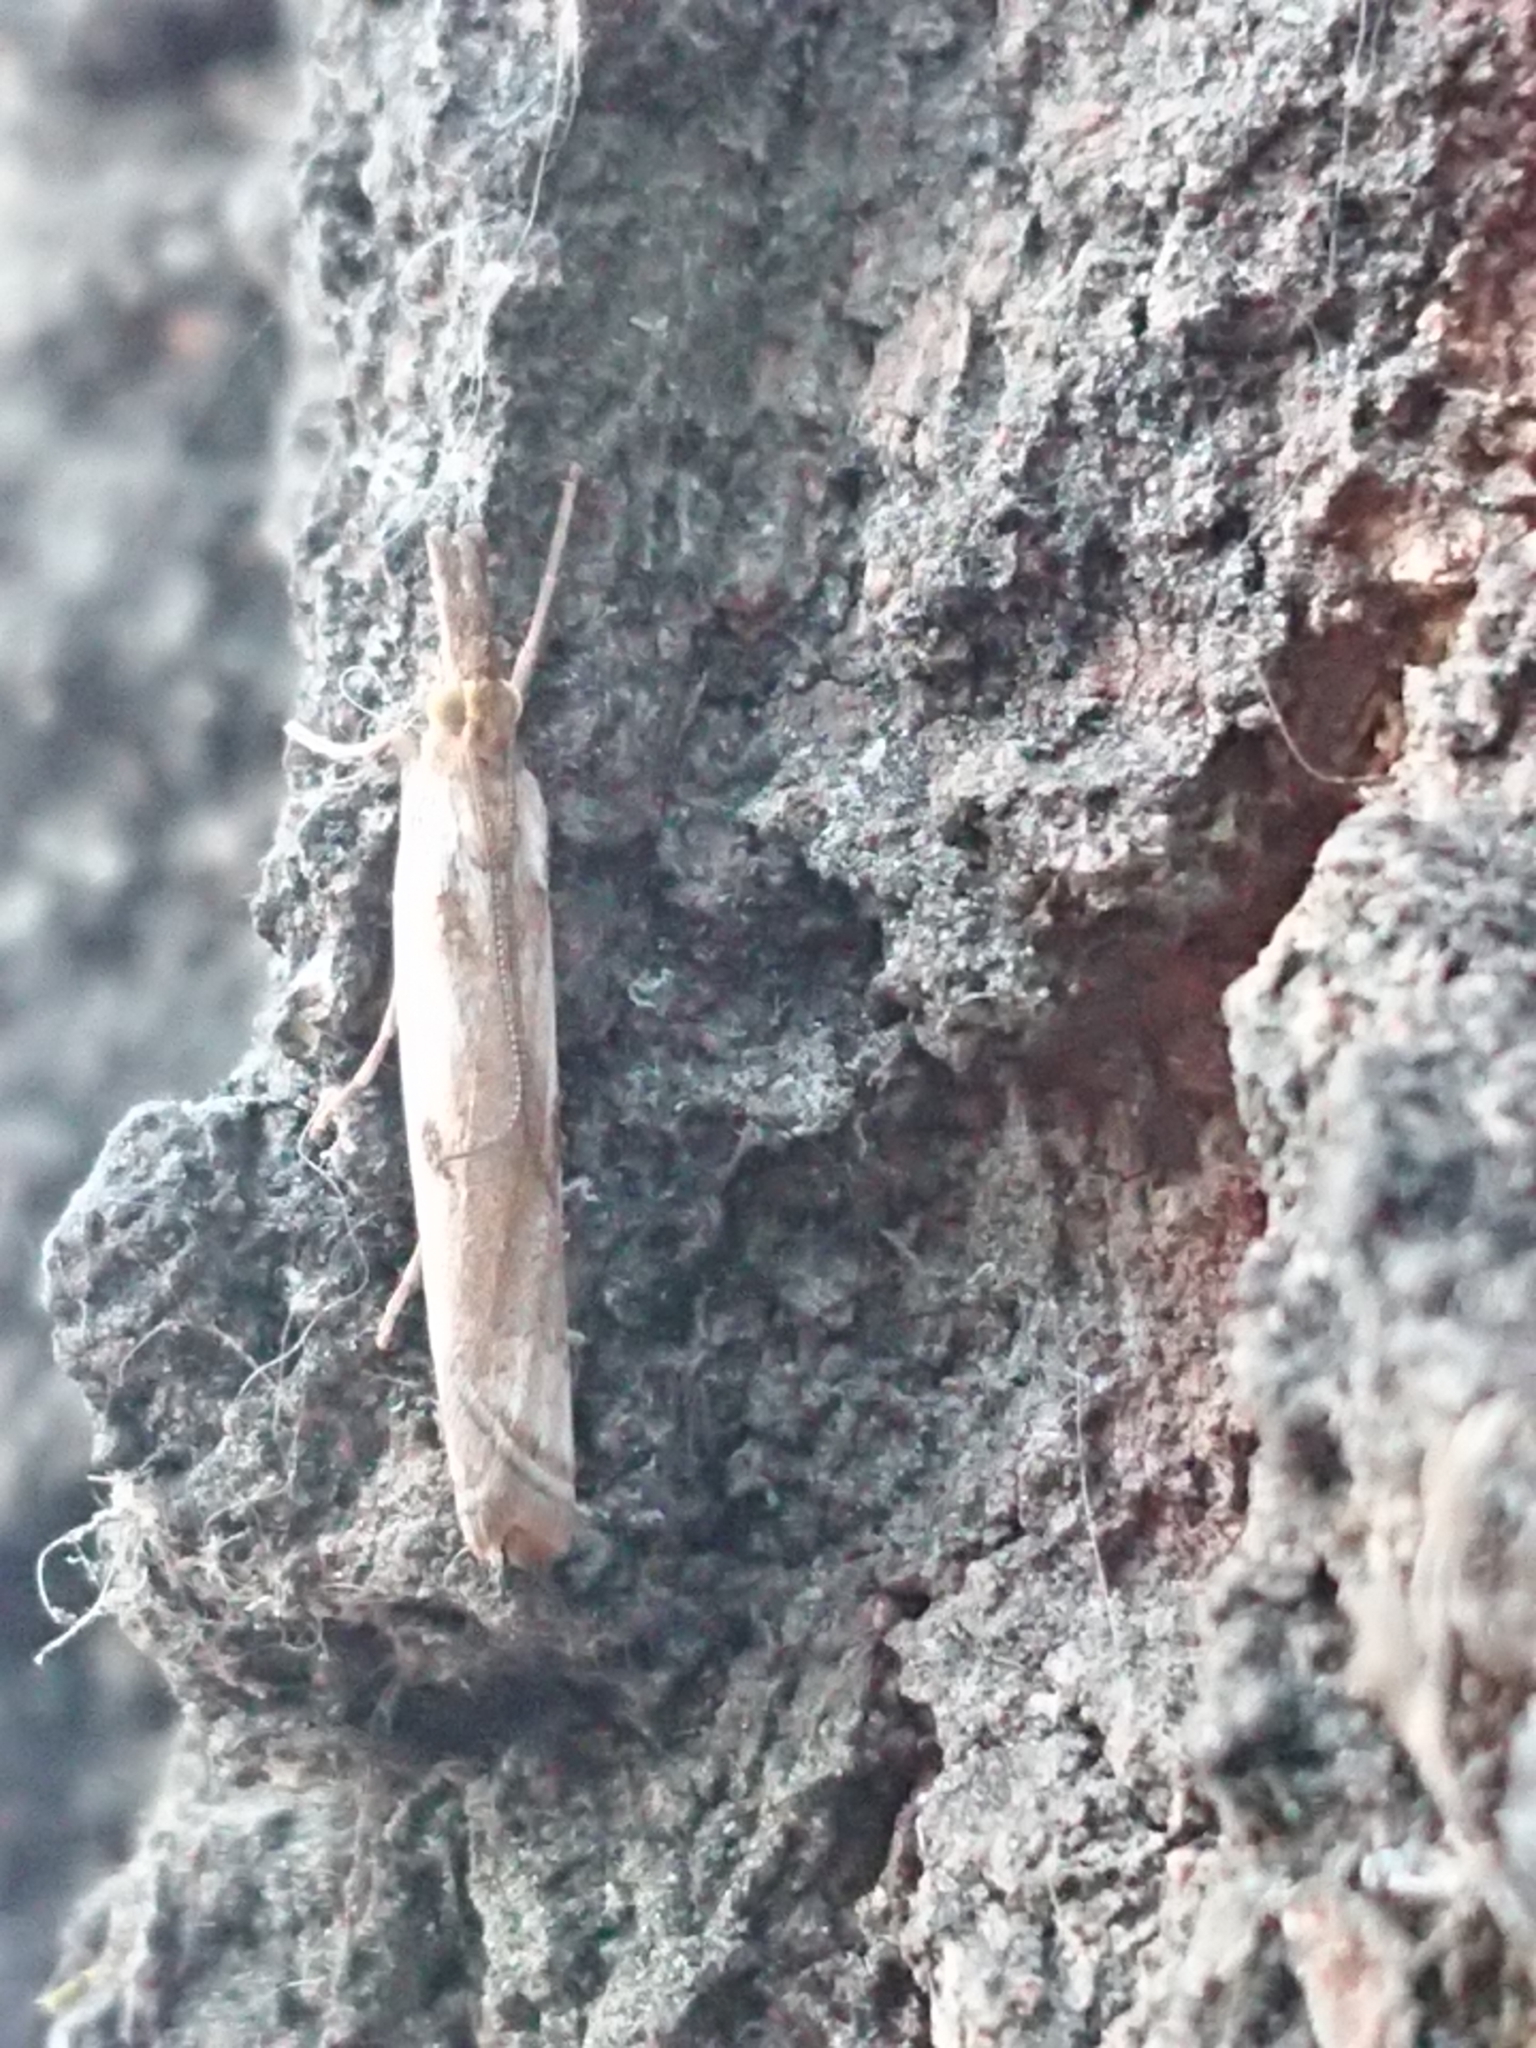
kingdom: Animalia
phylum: Arthropoda
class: Insecta
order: Lepidoptera
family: Crambidae
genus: Orocrambus
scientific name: Orocrambus vulgaris
